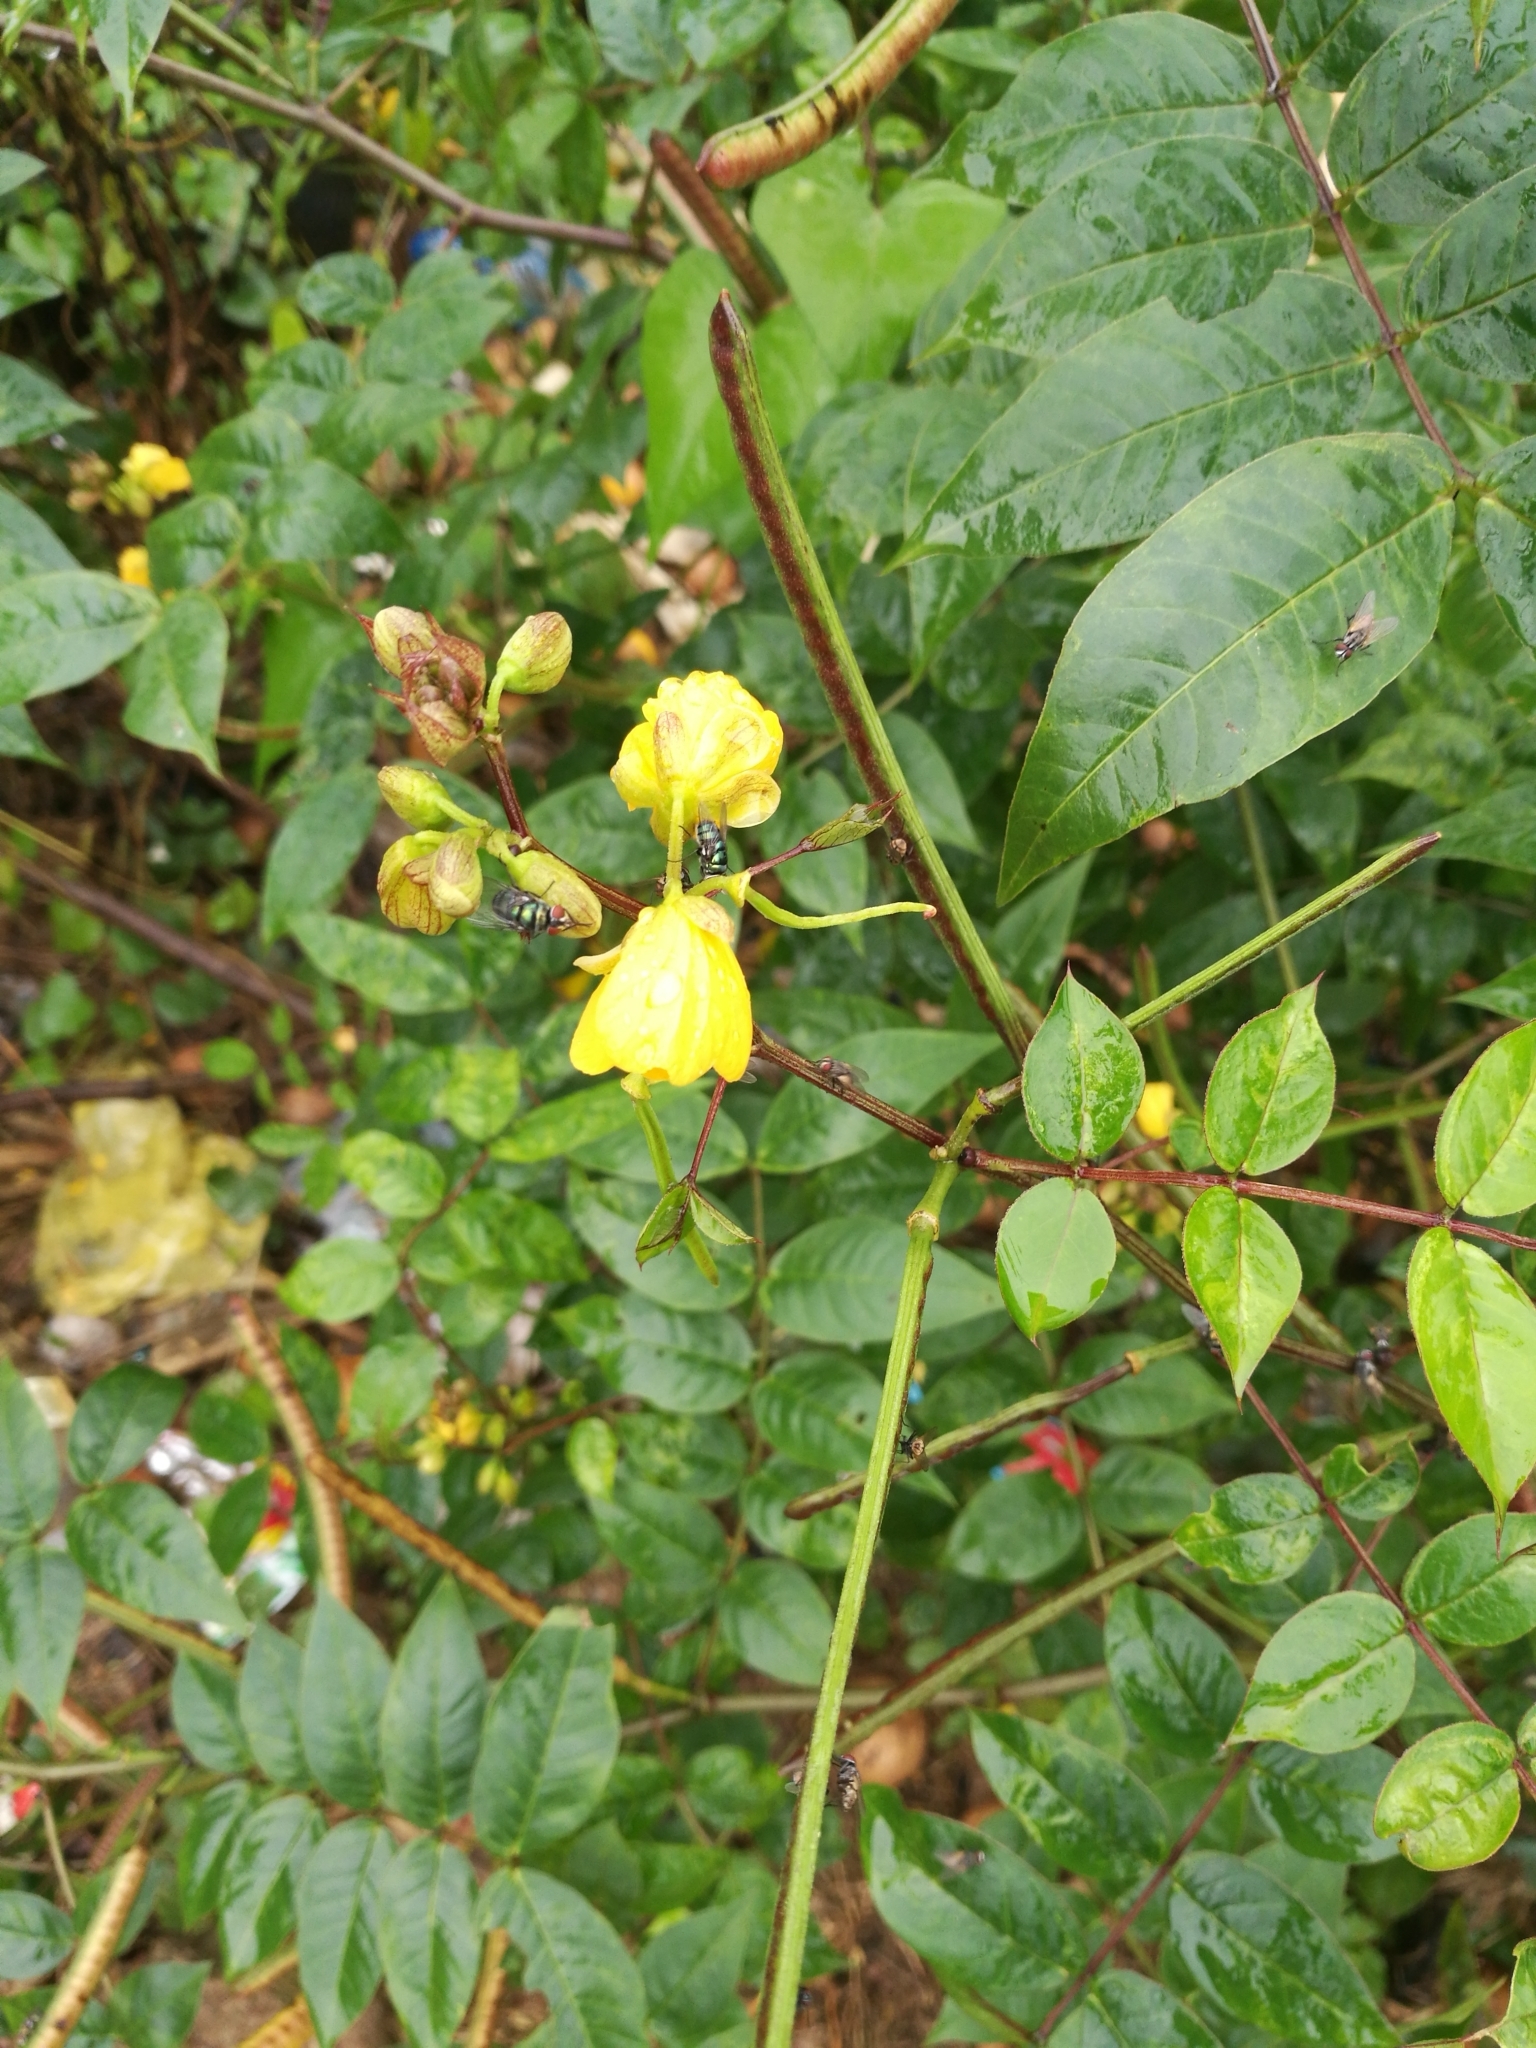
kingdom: Plantae
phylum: Tracheophyta
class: Magnoliopsida
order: Fabales
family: Fabaceae
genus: Senna
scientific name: Senna occidentalis
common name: Septicweed
